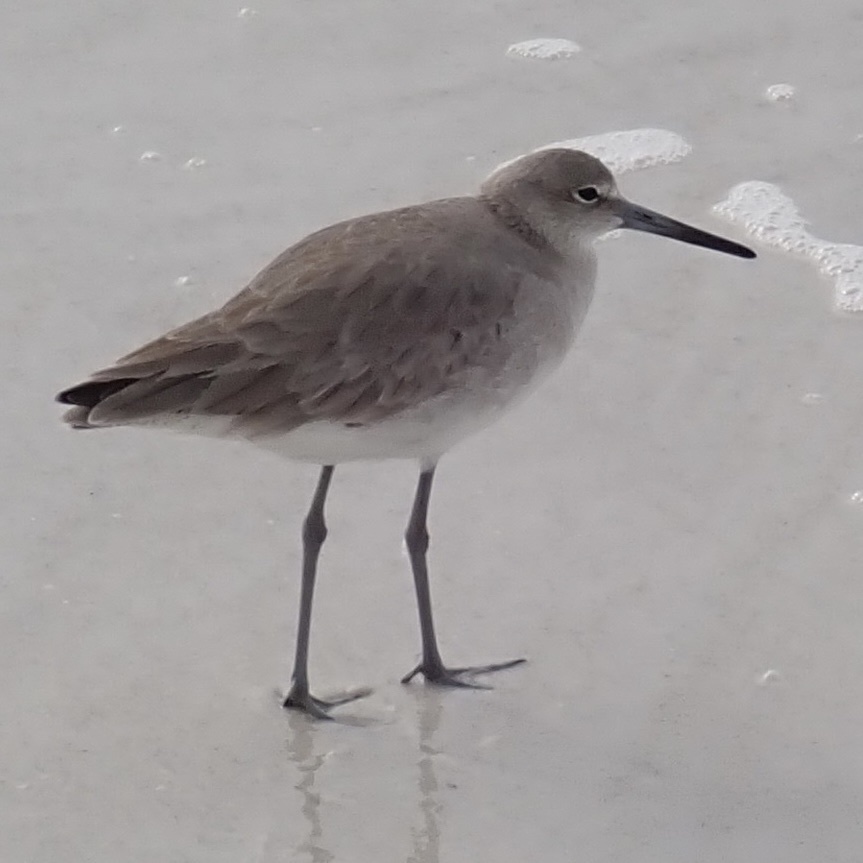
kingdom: Animalia
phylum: Chordata
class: Aves
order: Charadriiformes
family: Scolopacidae
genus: Tringa
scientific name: Tringa semipalmata
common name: Willet
